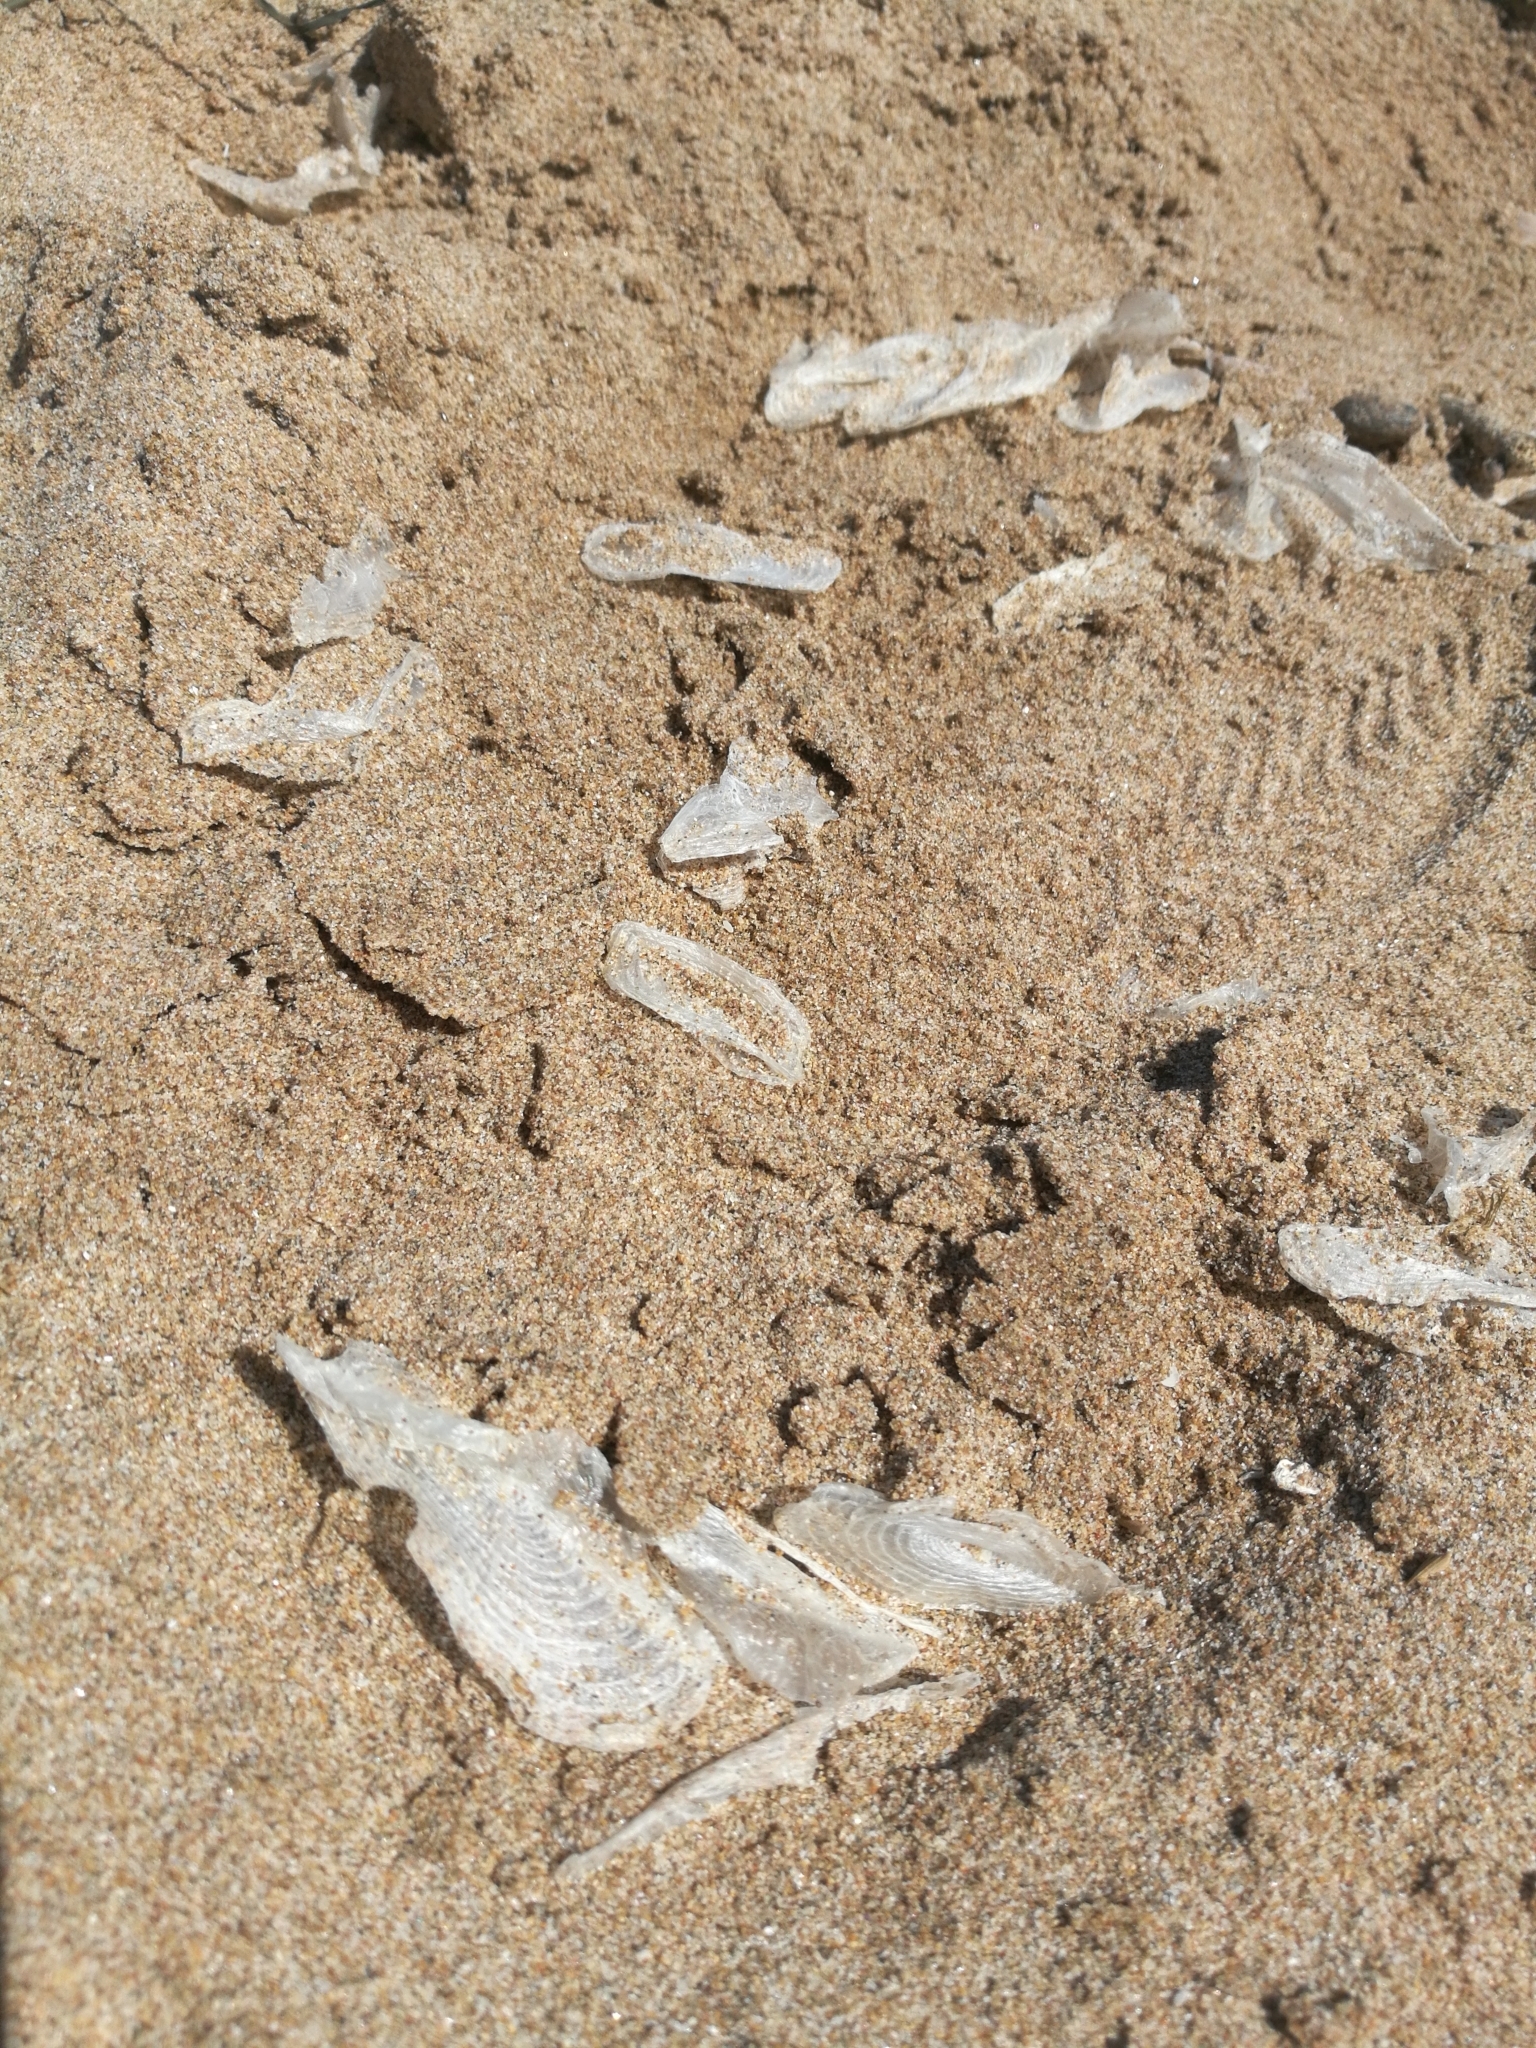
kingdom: Animalia
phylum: Cnidaria
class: Hydrozoa
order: Anthoathecata
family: Porpitidae
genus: Velella
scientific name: Velella velella
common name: By-the-wind-sailor
